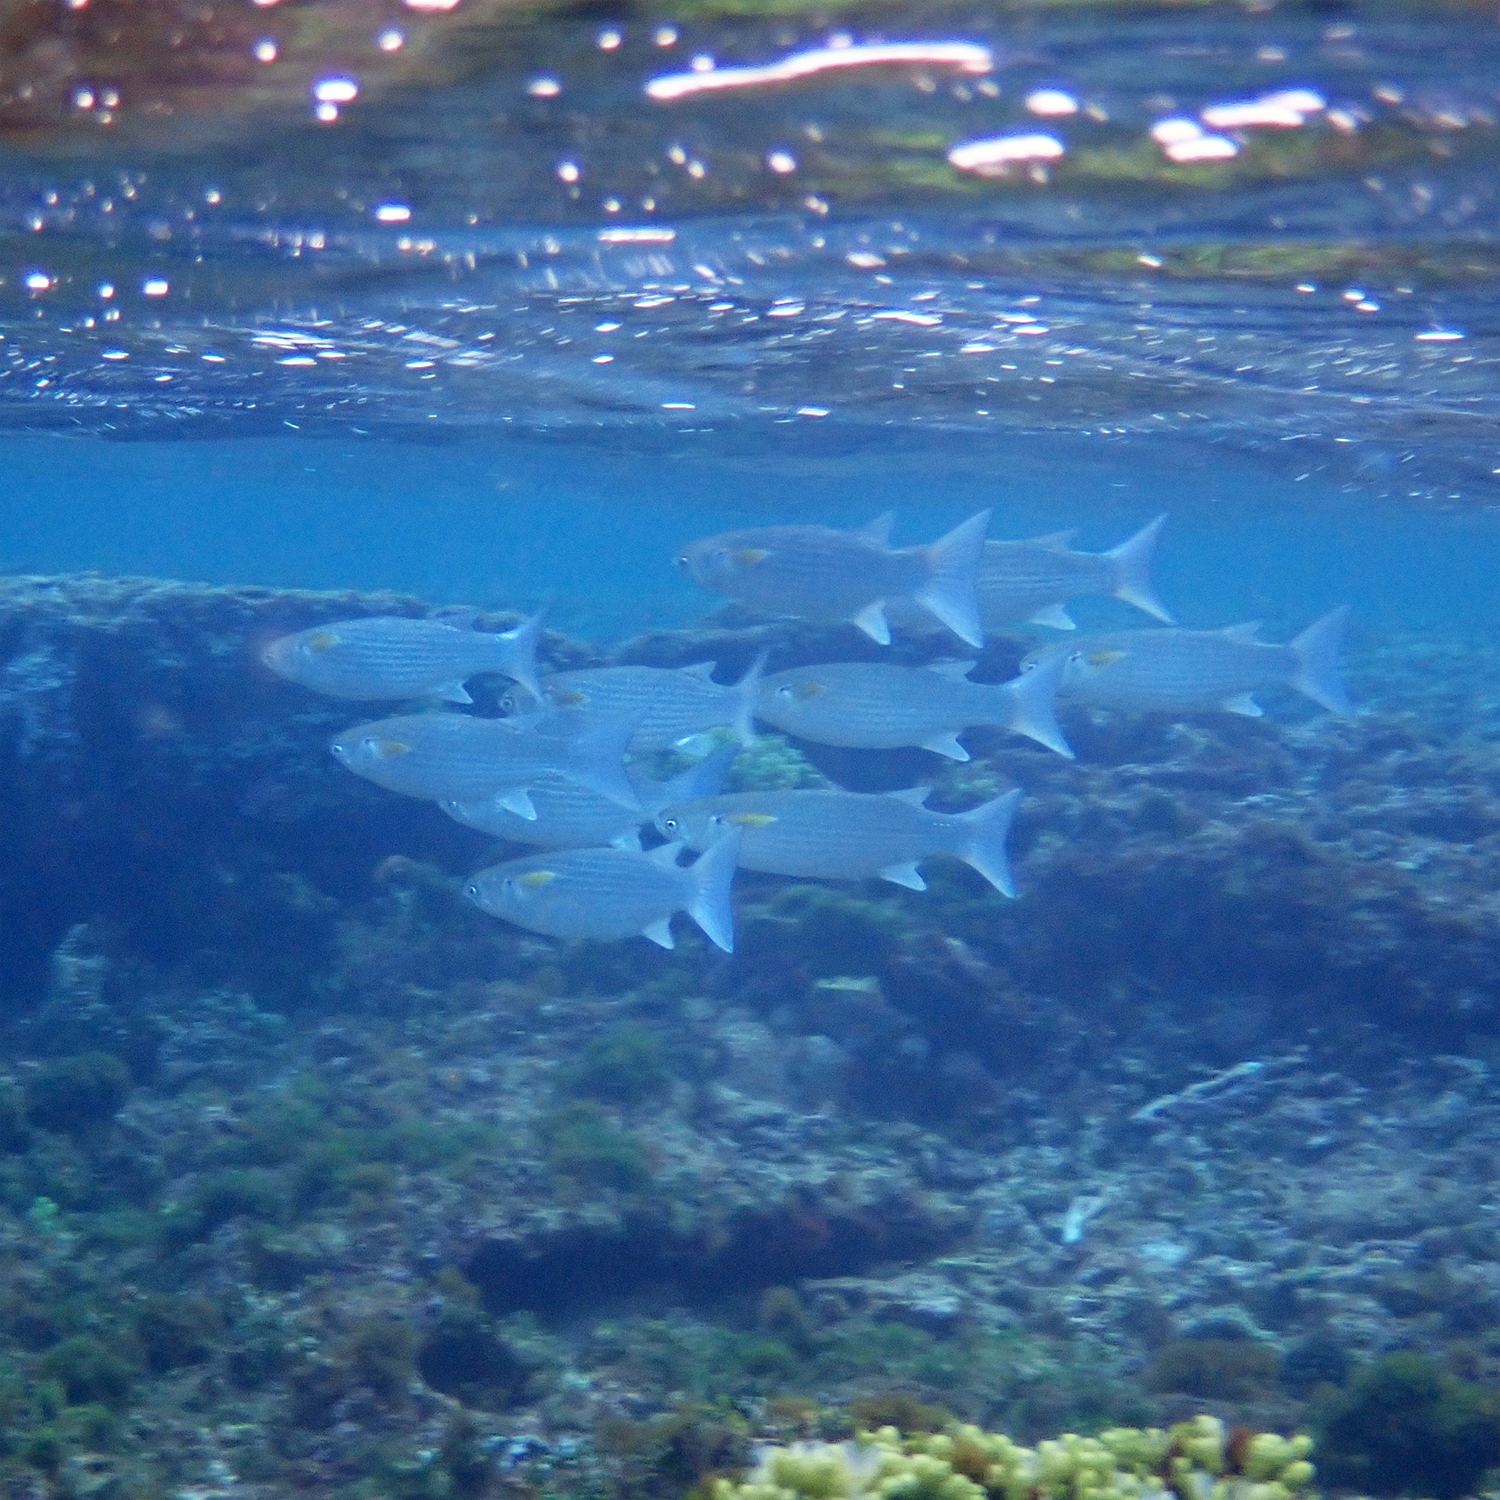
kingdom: Animalia
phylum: Chordata
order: Mugiliformes
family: Mugilidae
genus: Crenimugil
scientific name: Crenimugil crenilabis
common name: Fringelip mullet
